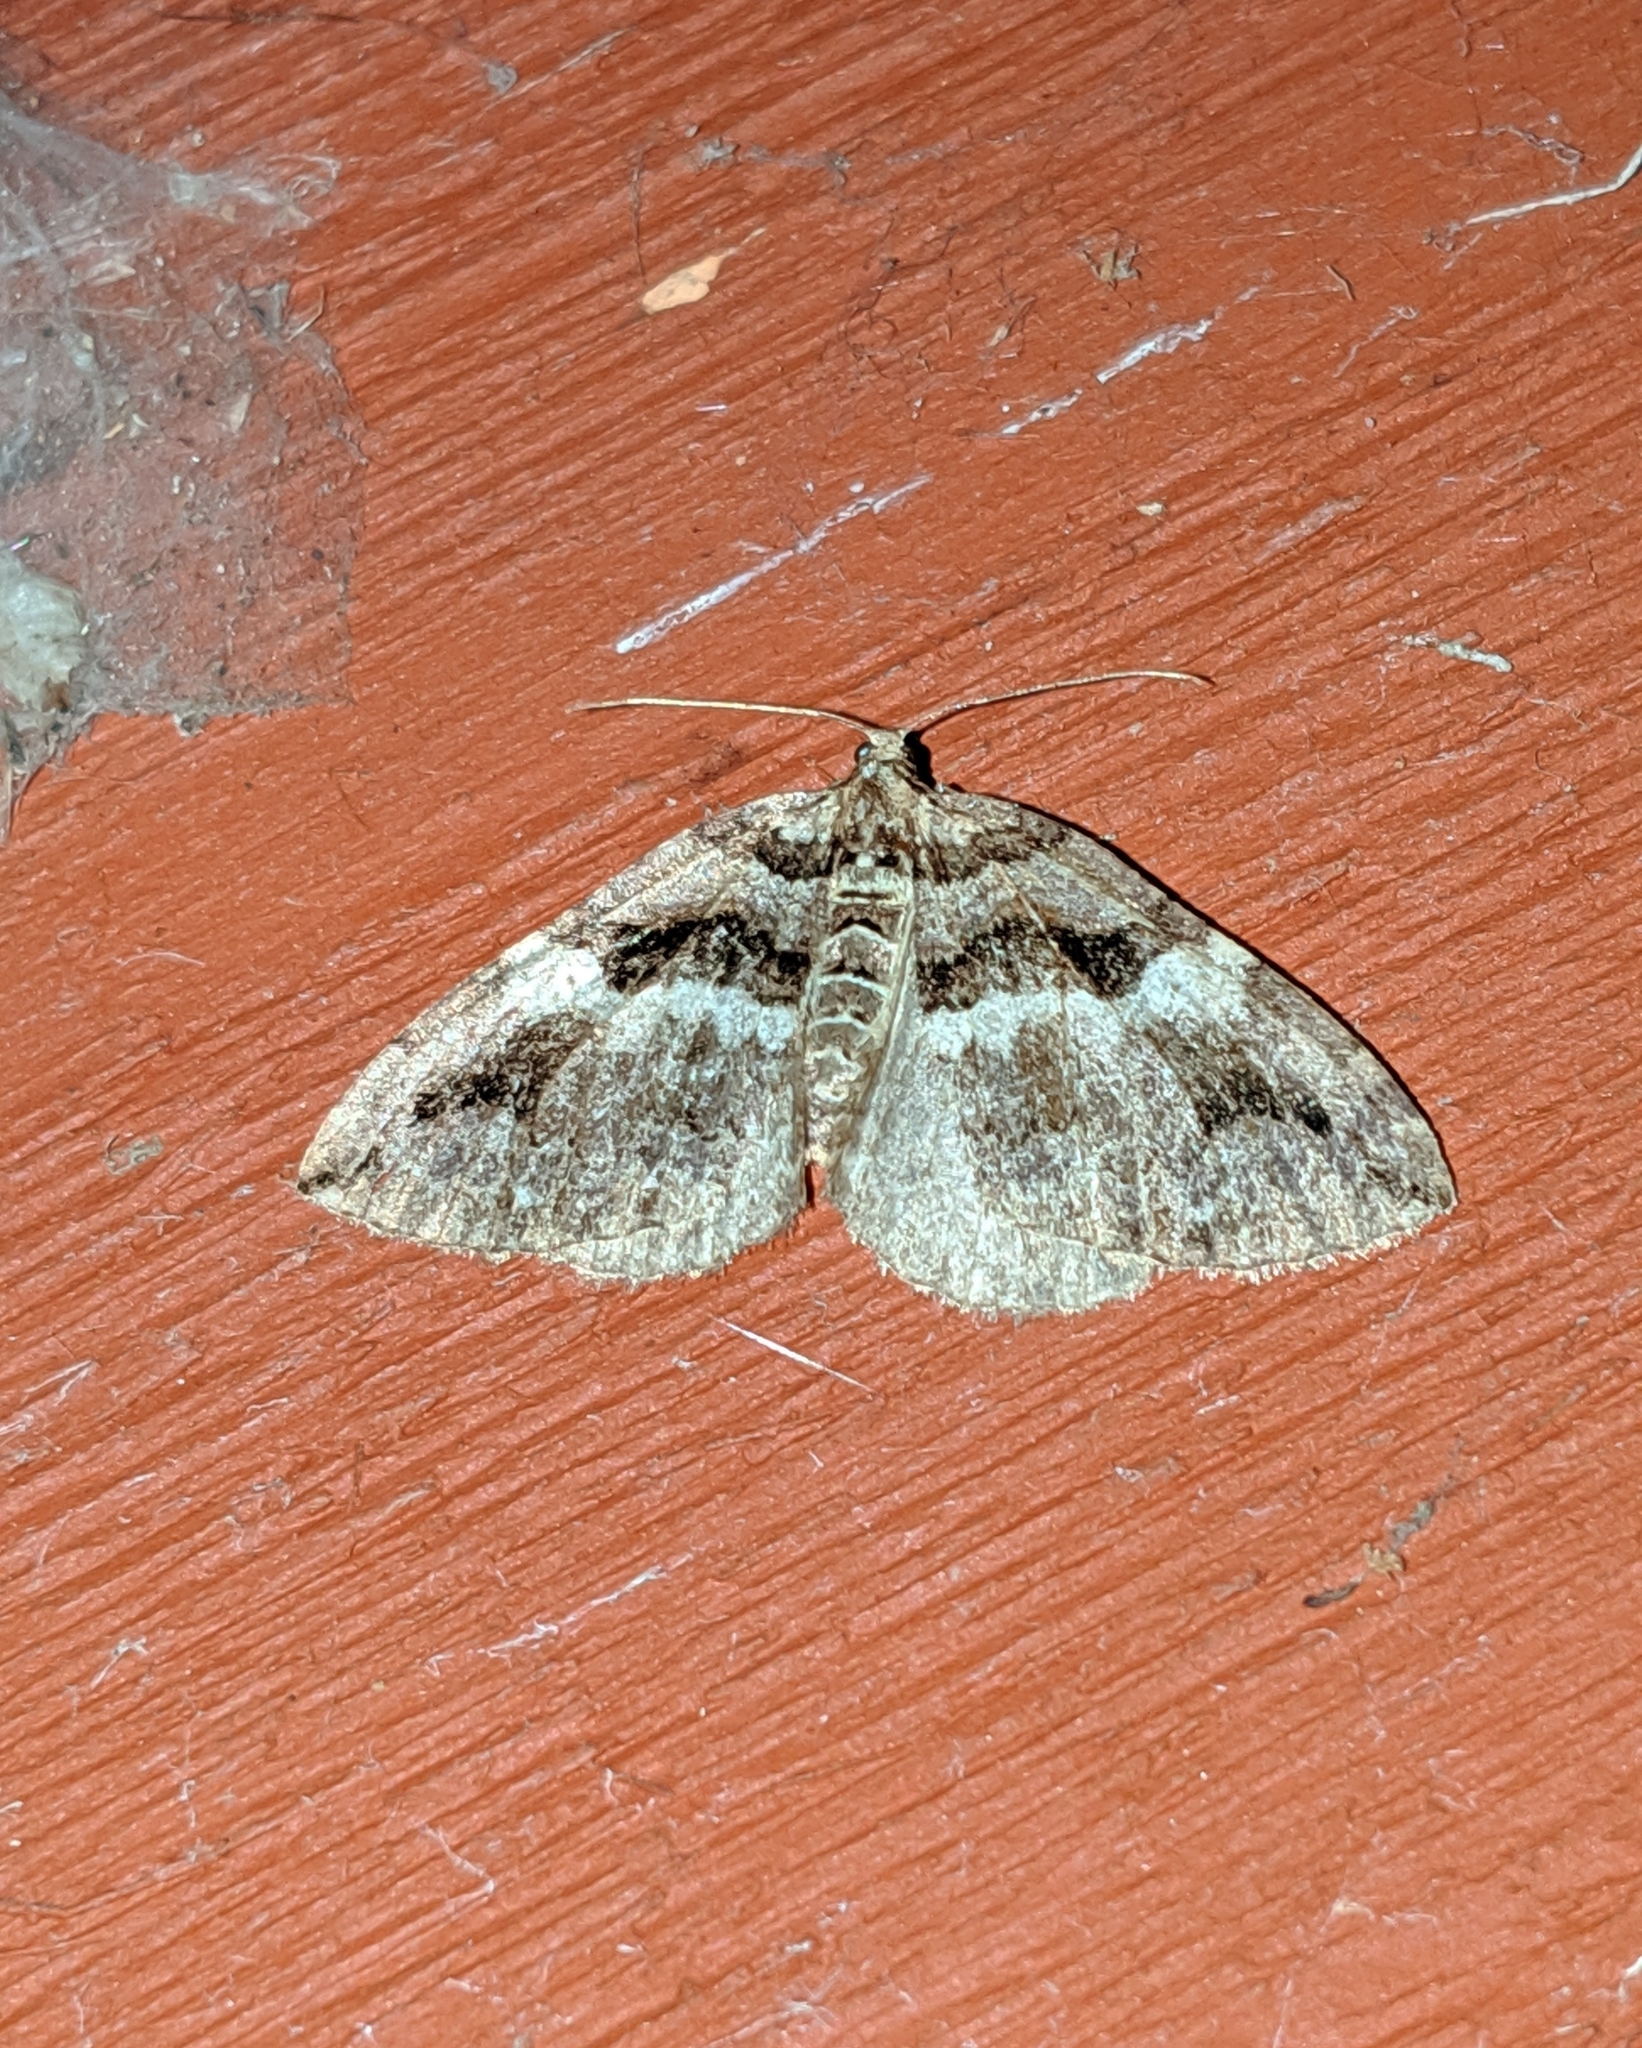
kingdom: Animalia
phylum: Arthropoda
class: Insecta
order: Lepidoptera
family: Geometridae
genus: Anticlea
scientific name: Anticlea vasiliata
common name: Variable carpet
